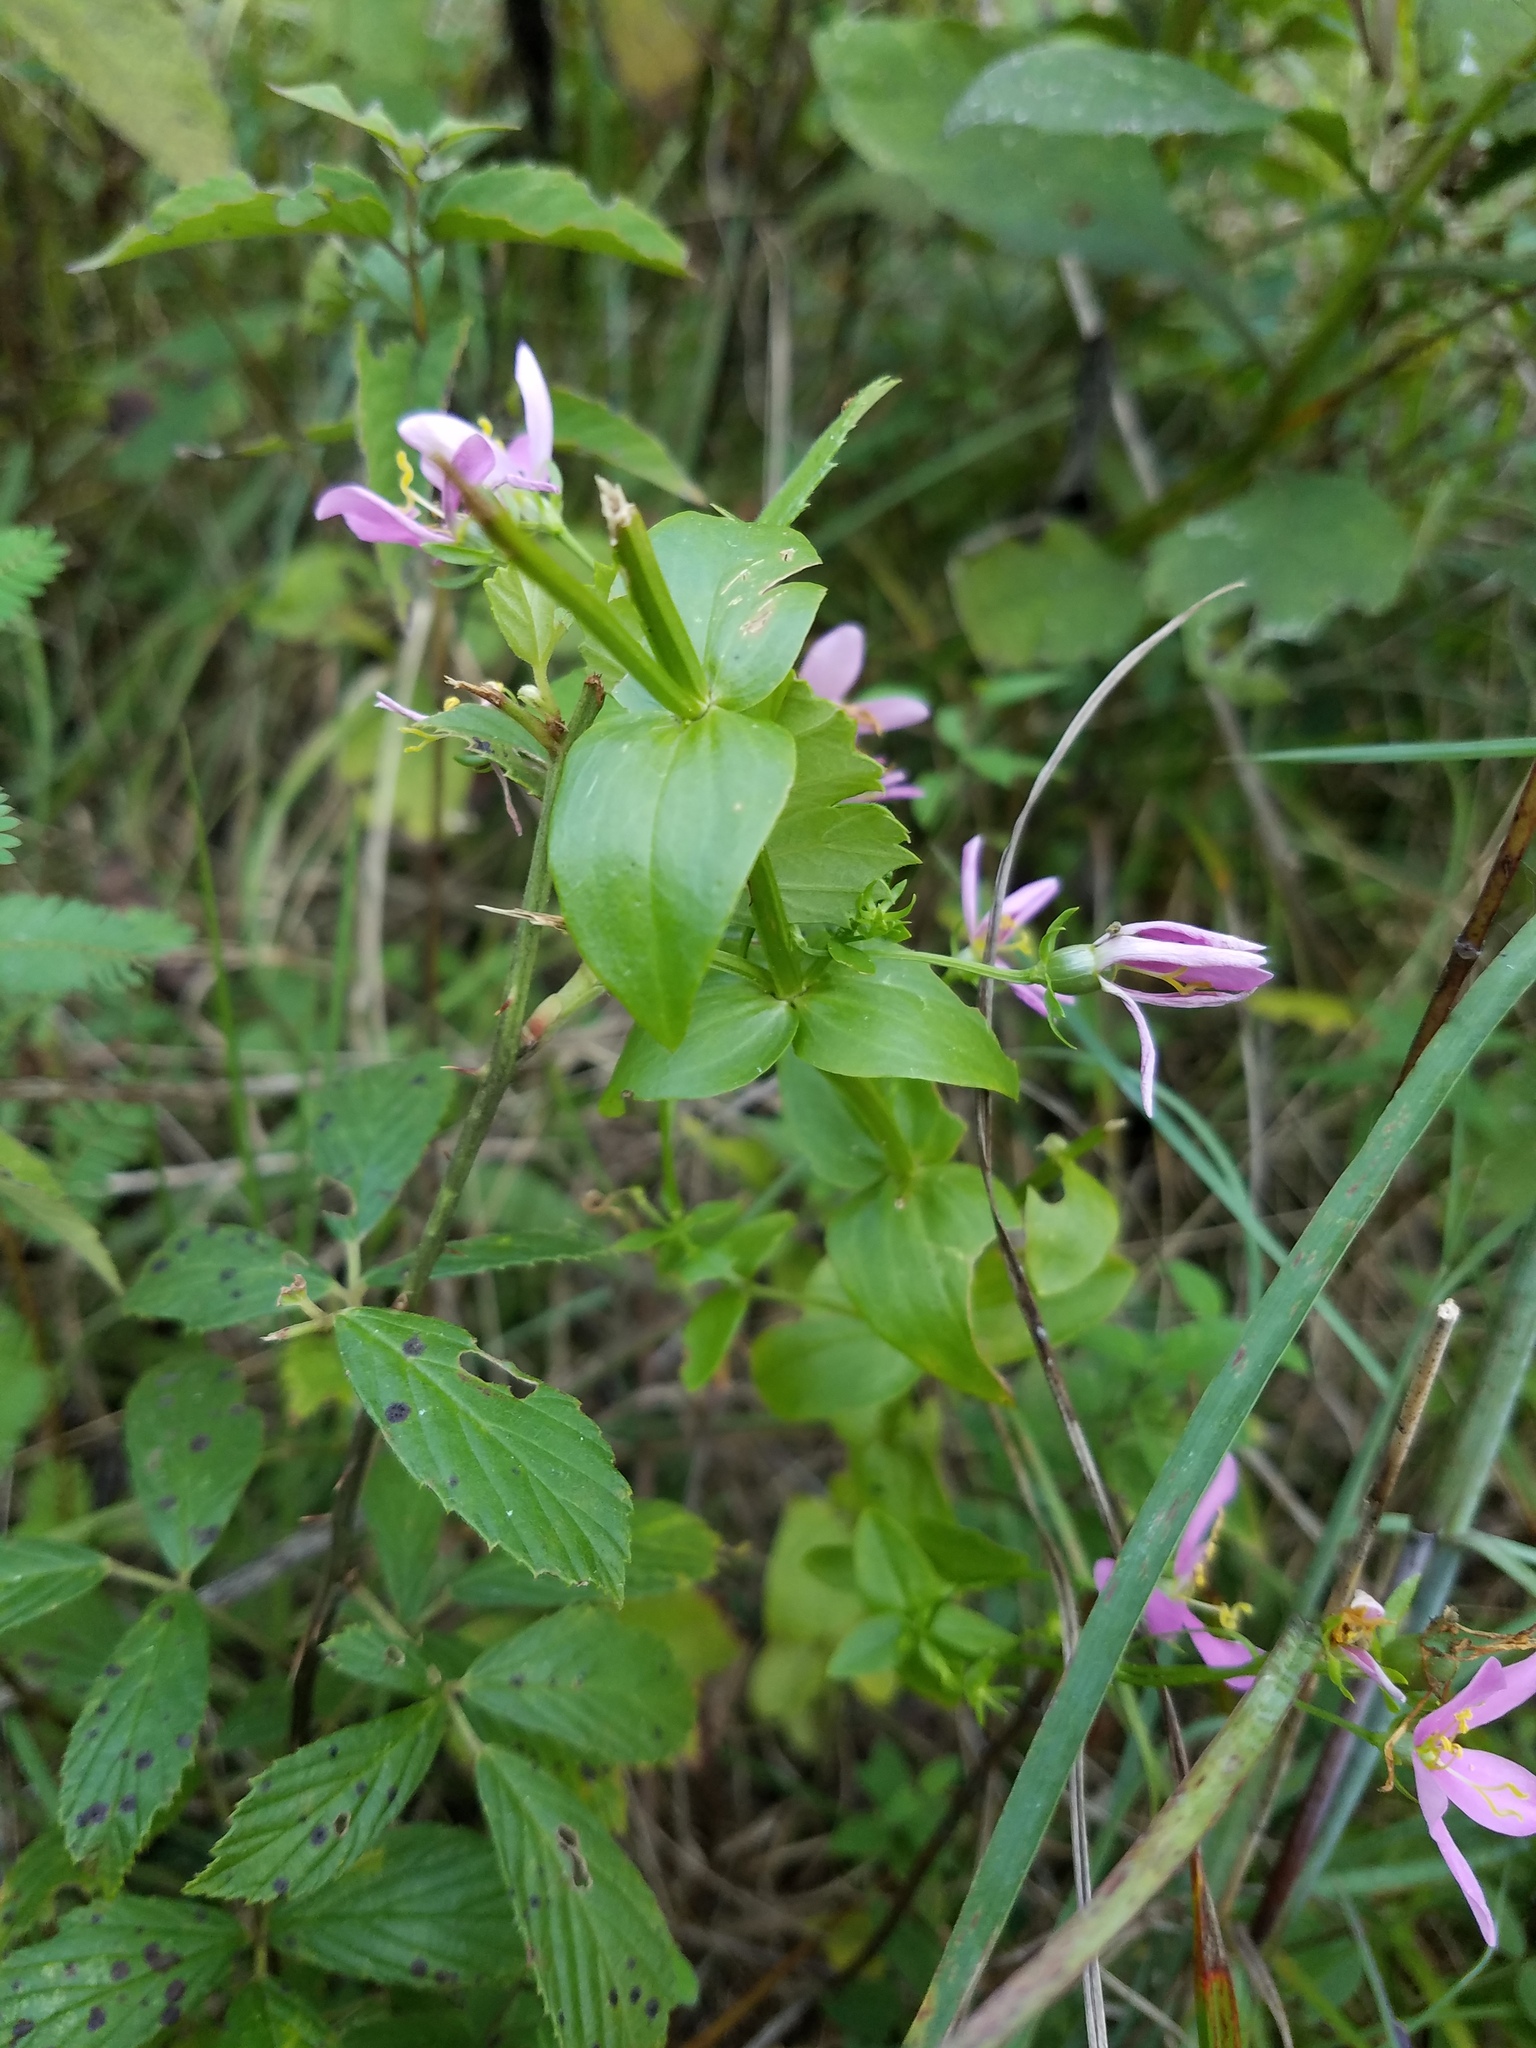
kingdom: Plantae
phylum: Tracheophyta
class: Magnoliopsida
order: Gentianales
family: Gentianaceae
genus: Sabatia
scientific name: Sabatia angularis
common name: Rose-pink
